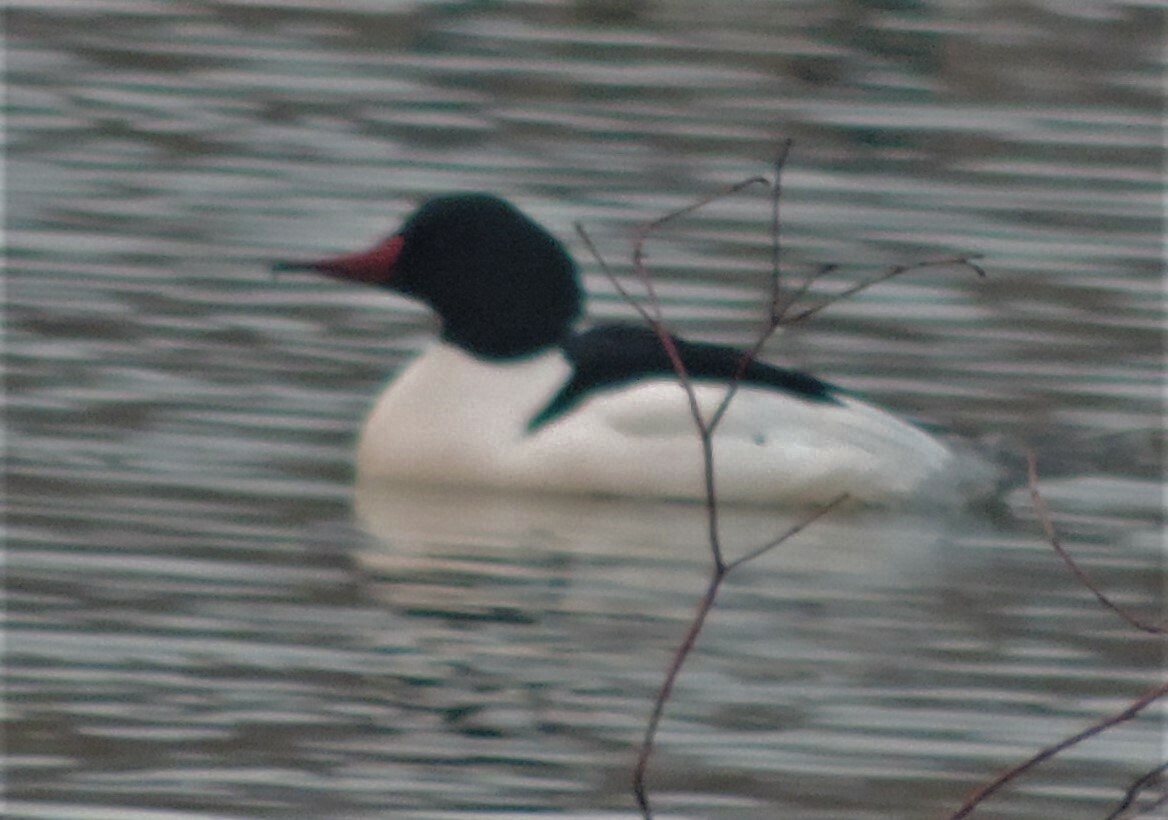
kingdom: Animalia
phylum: Chordata
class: Aves
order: Anseriformes
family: Anatidae
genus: Mergus
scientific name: Mergus merganser
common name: Common merganser
